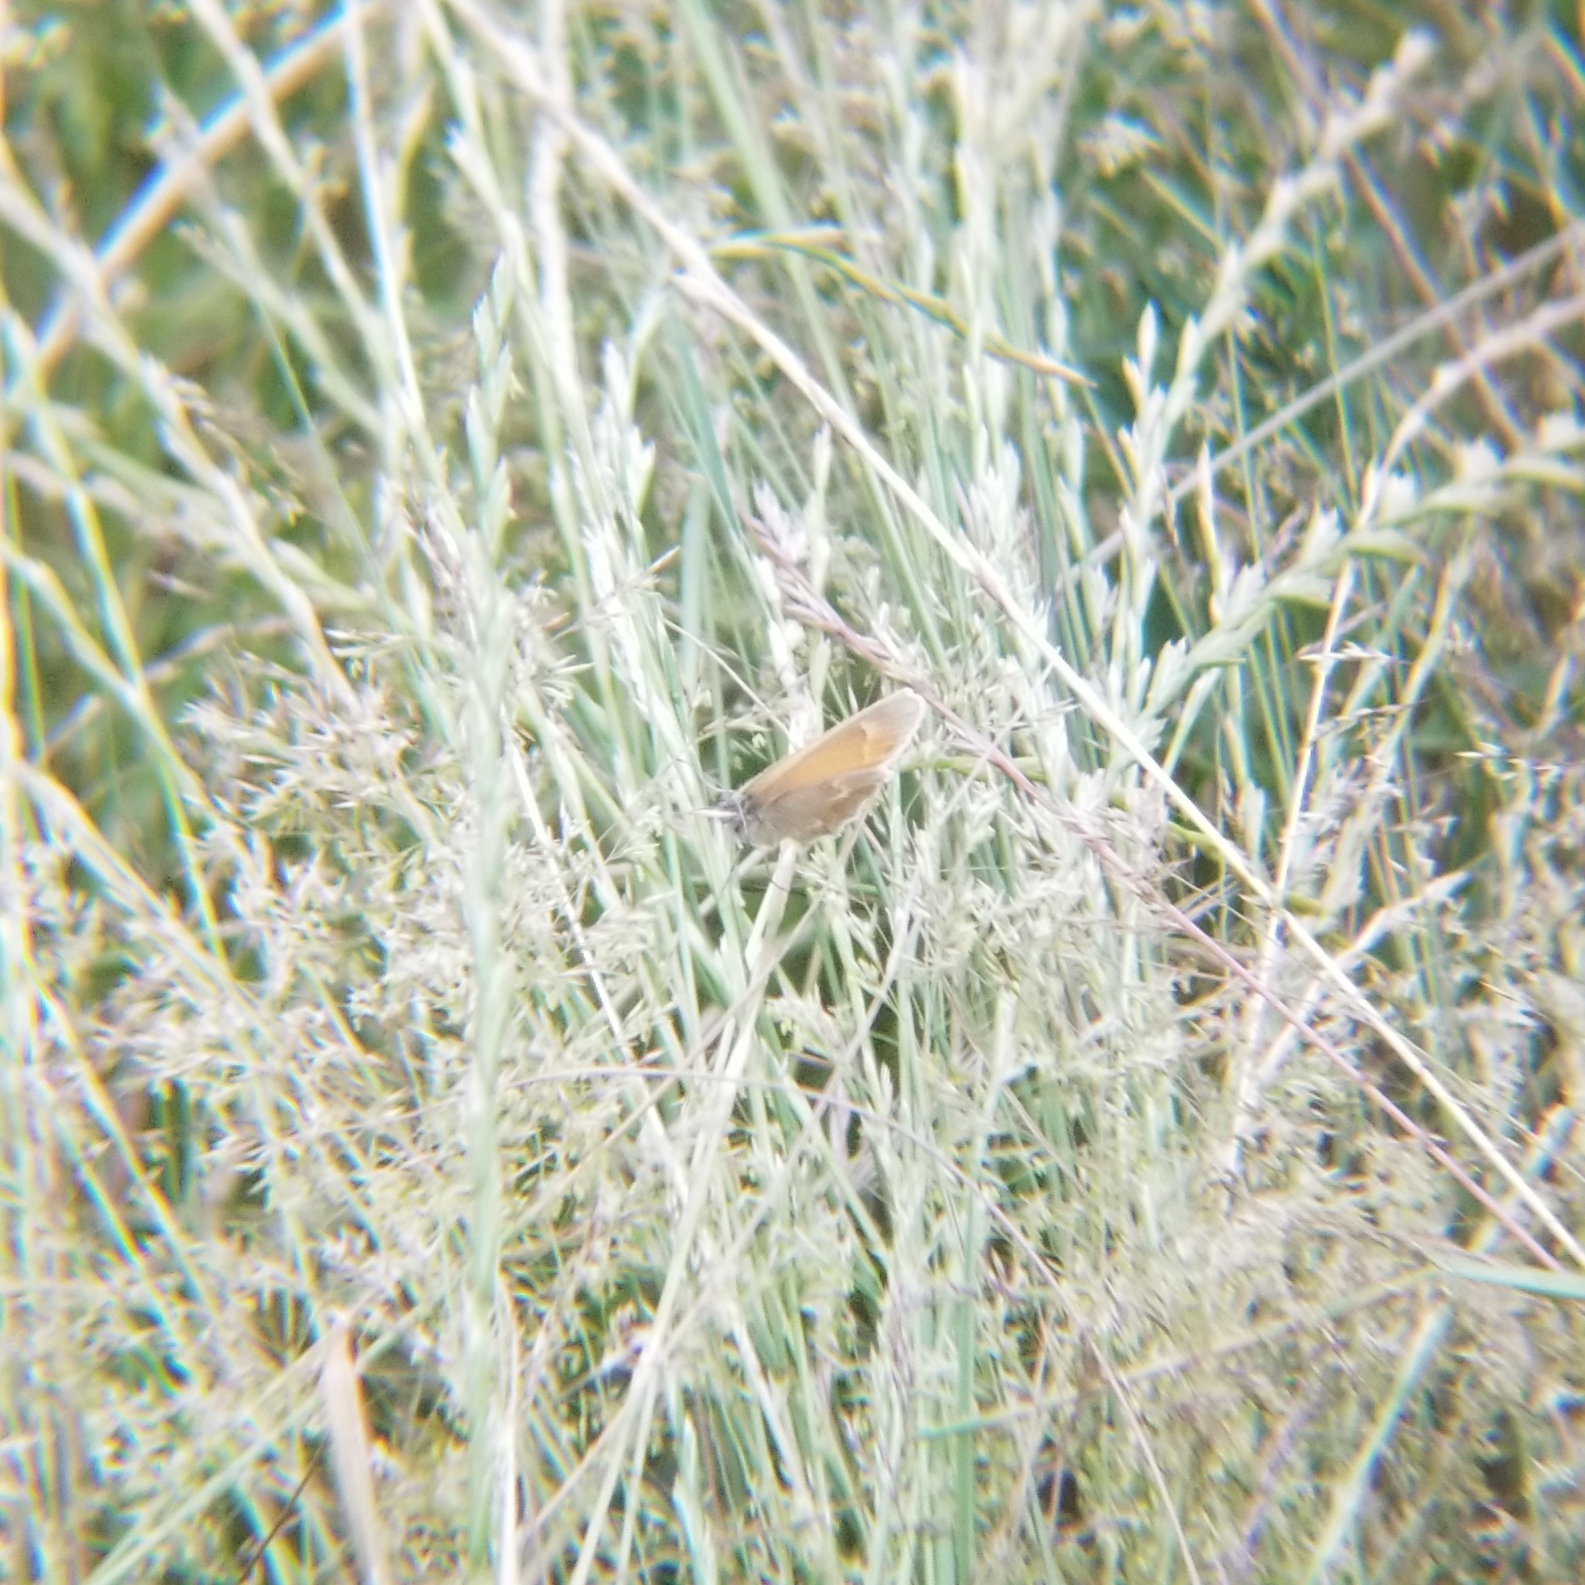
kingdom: Animalia
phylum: Arthropoda
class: Insecta
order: Lepidoptera
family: Nymphalidae
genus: Coenonympha
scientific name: Coenonympha california
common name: Common ringlet
